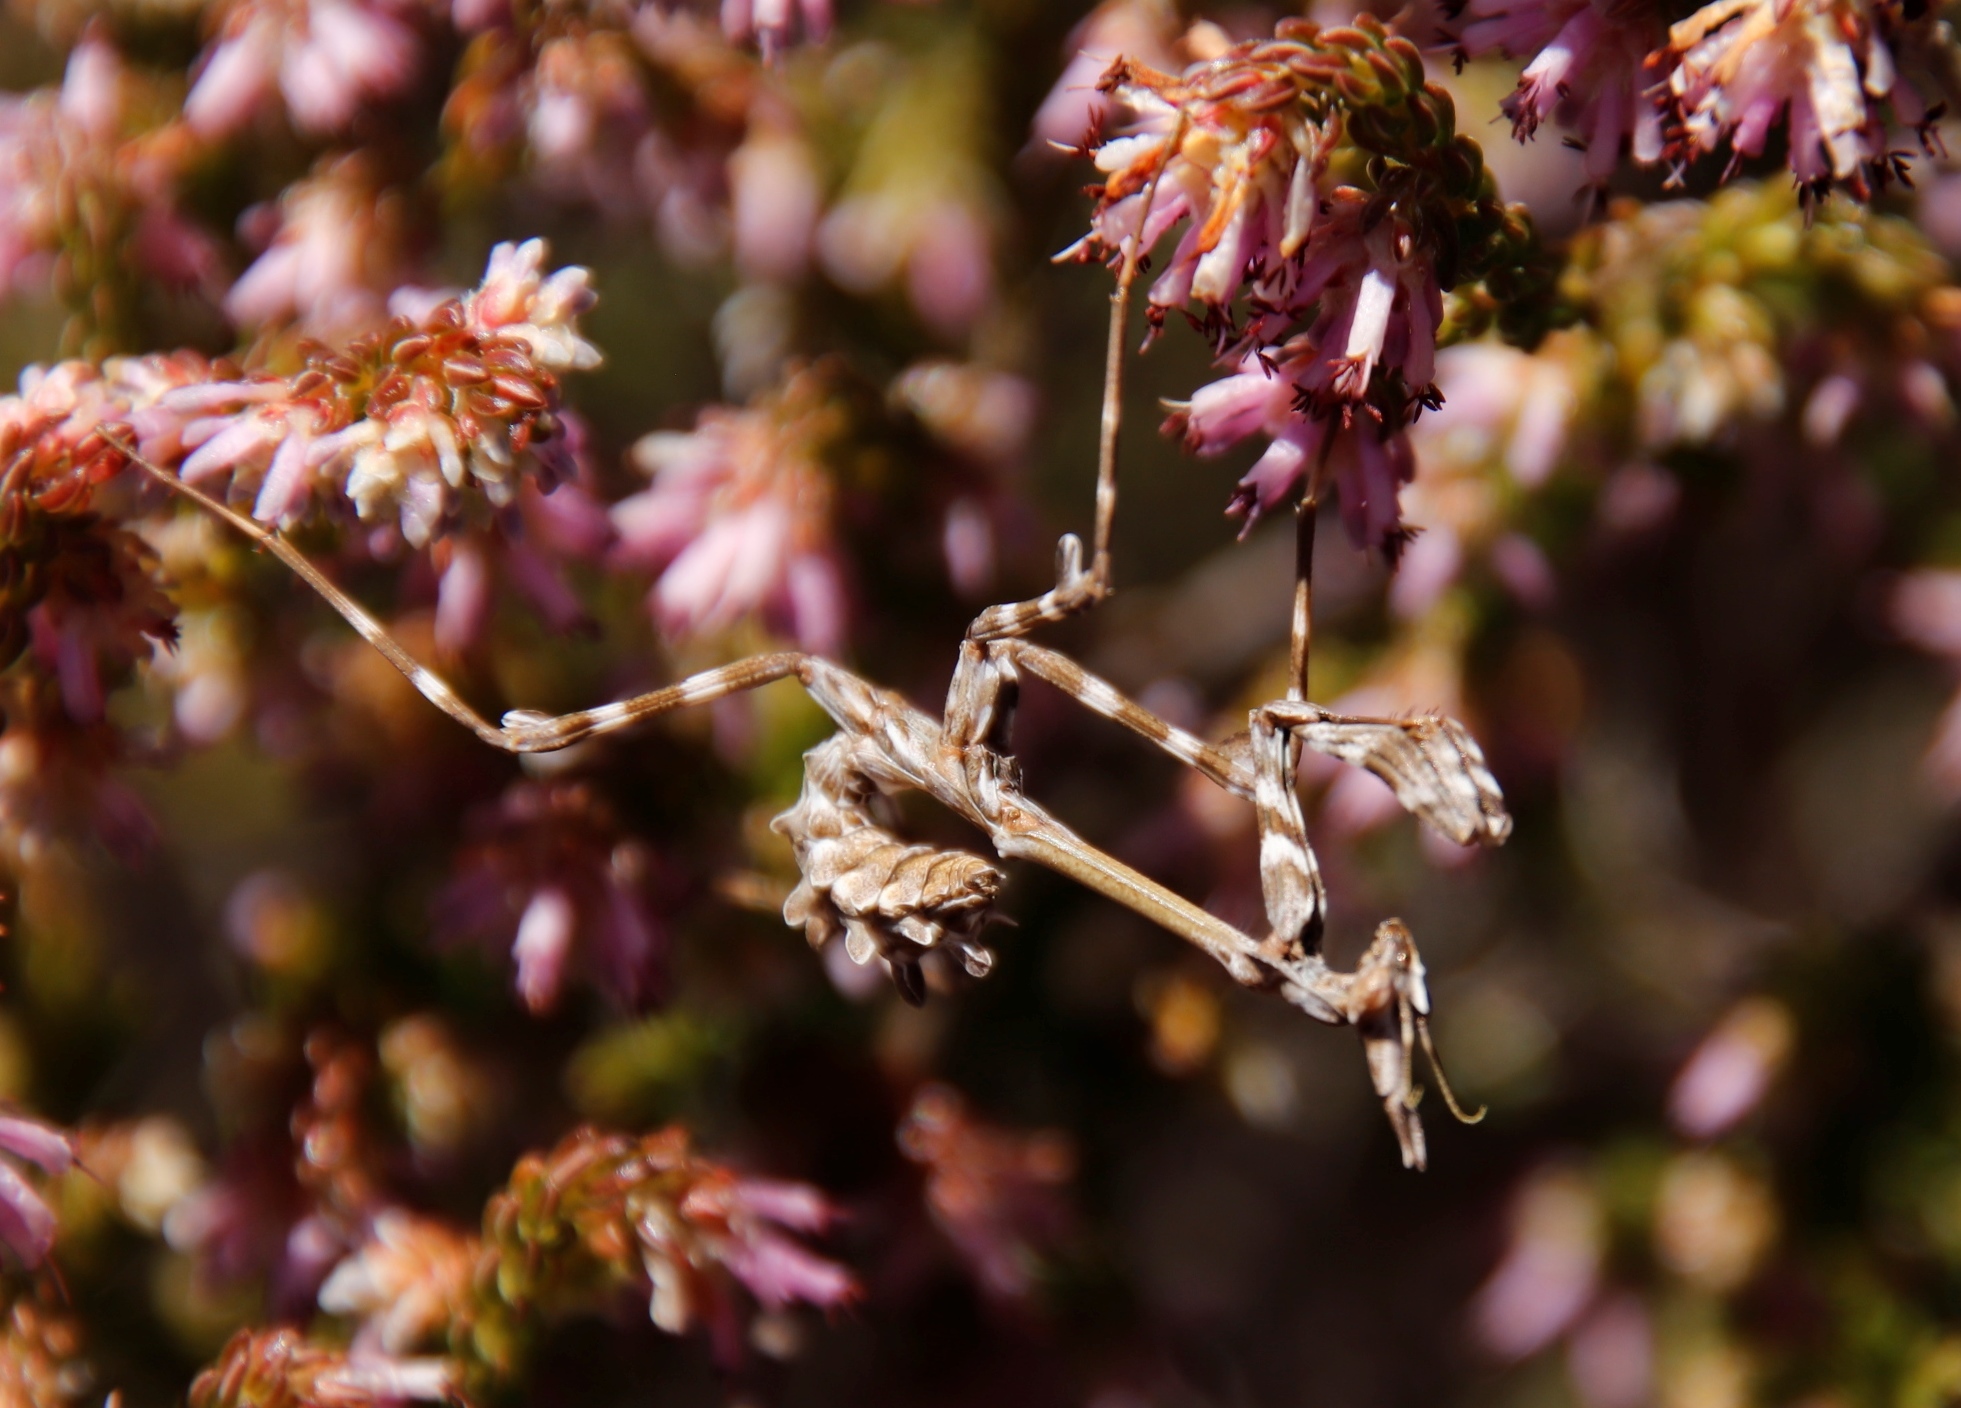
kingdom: Animalia
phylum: Arthropoda
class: Insecta
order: Mantodea
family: Empusidae
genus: Empusa
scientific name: Empusa binotata
